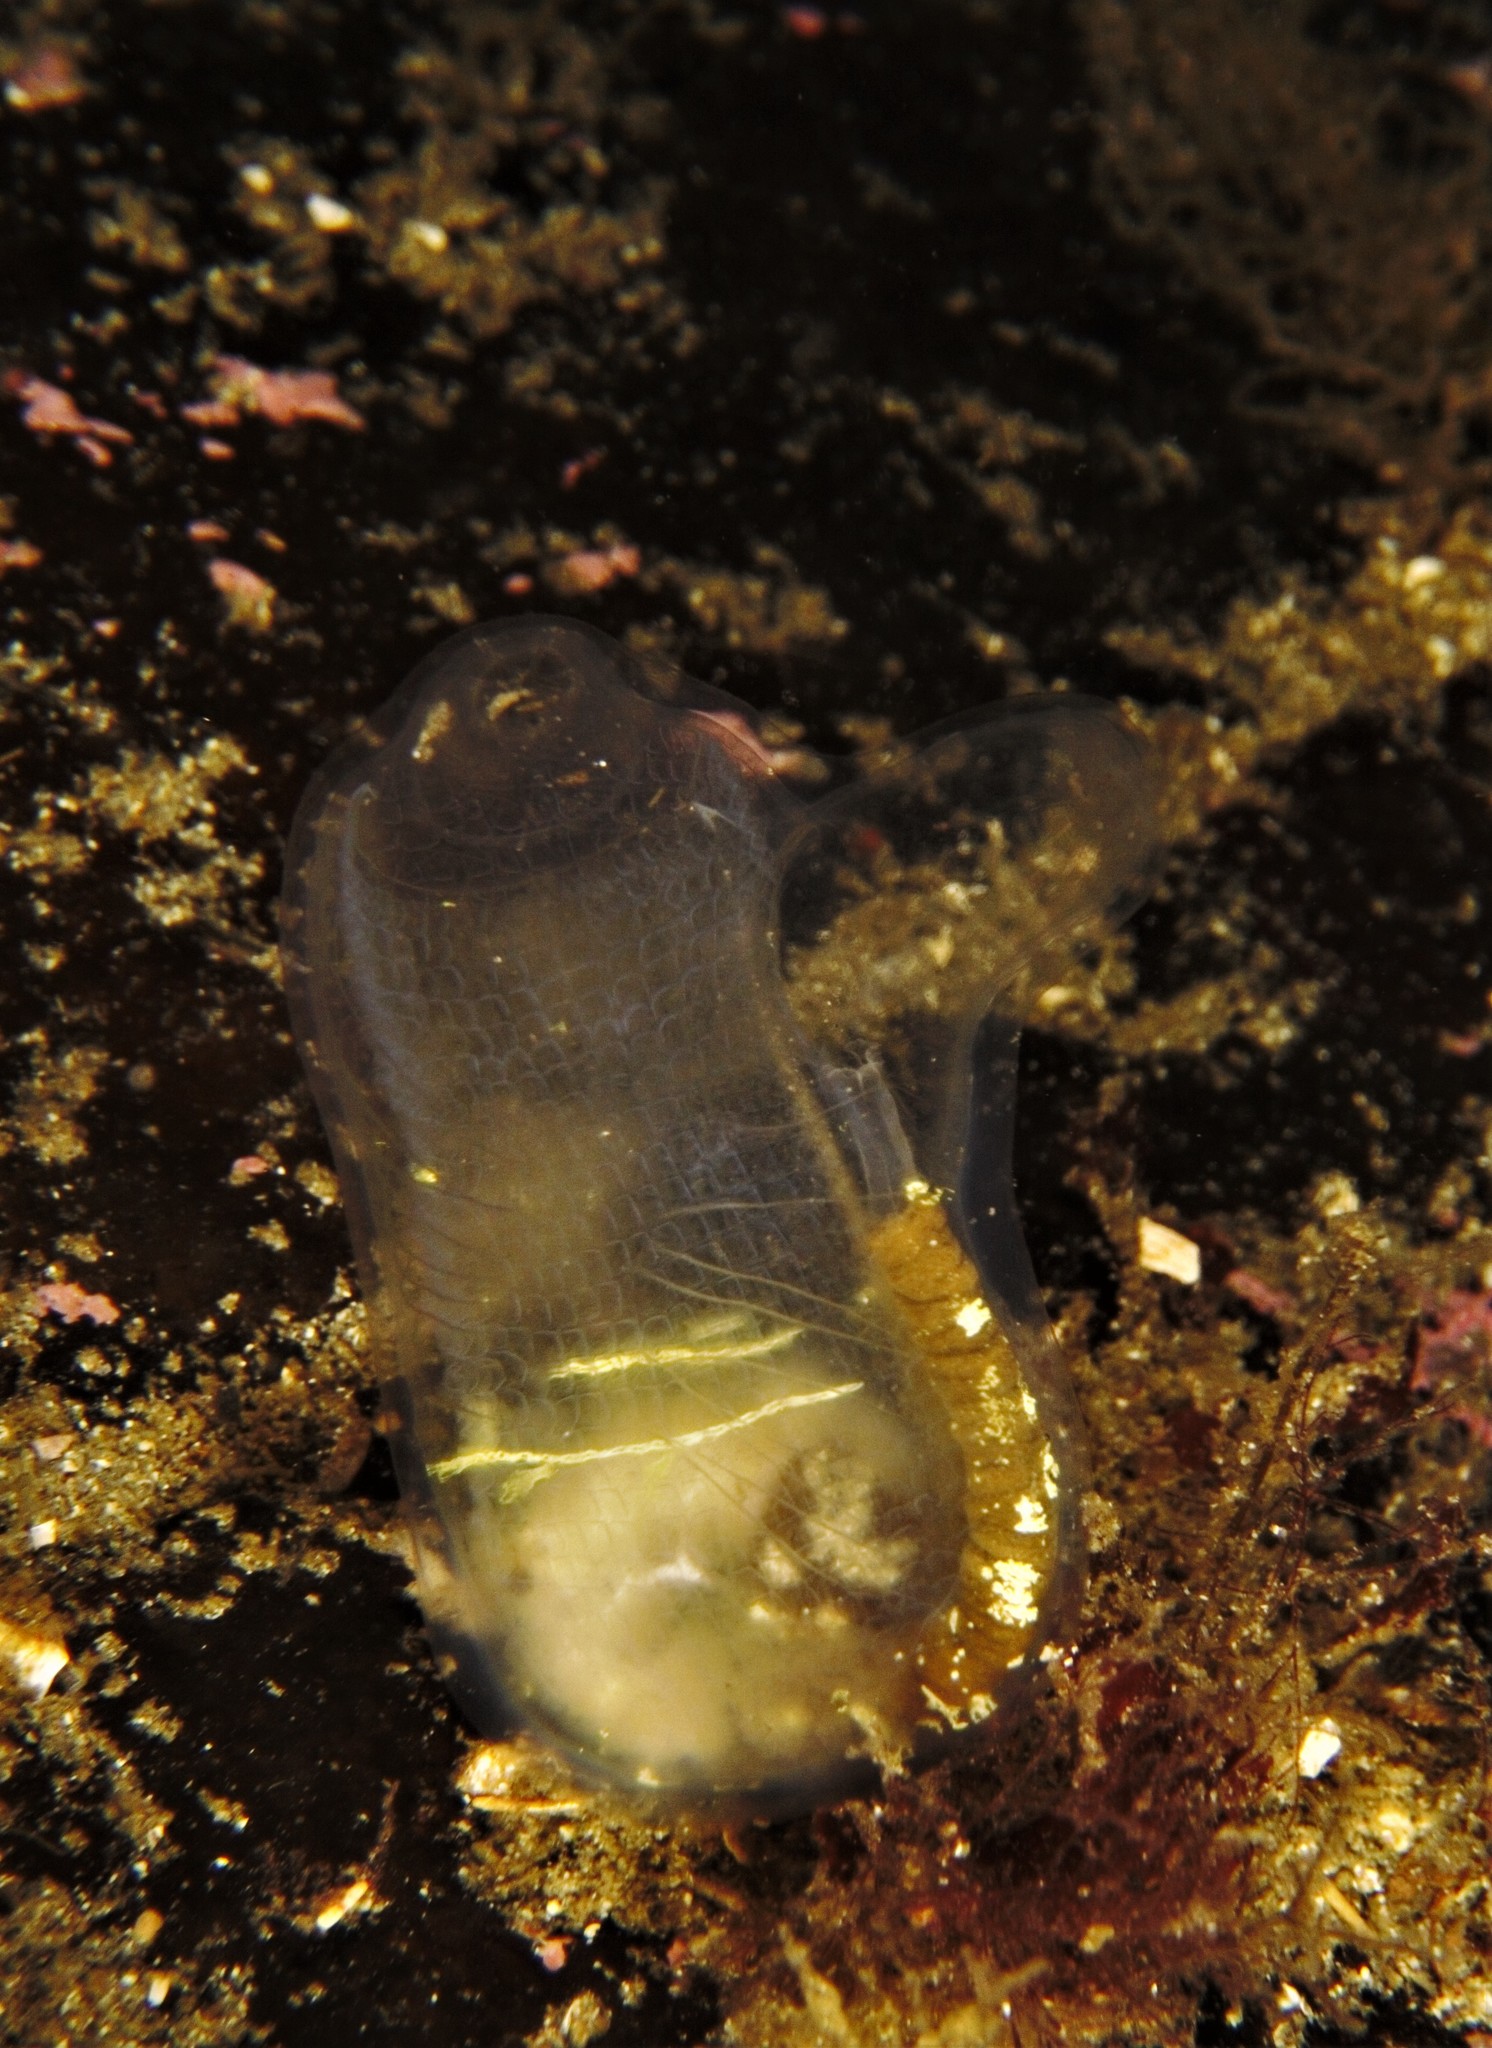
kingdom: Animalia
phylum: Chordata
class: Ascidiacea
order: Phlebobranchia
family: Corellidae
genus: Corella
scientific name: Corella parallelogramma
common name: Gas mantle ascidian
